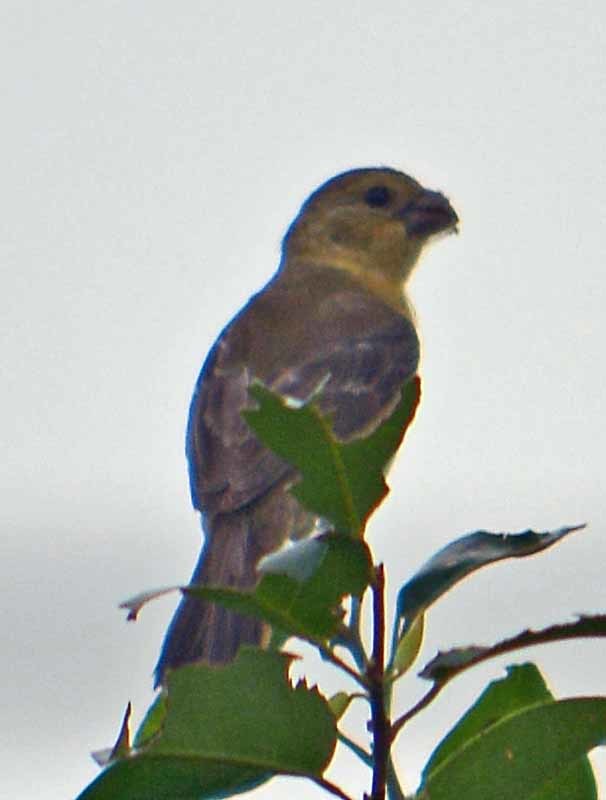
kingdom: Animalia
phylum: Chordata
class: Aves
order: Passeriformes
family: Thraupidae
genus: Sporophila
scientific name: Sporophila morelleti
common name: Morelet's seedeater
